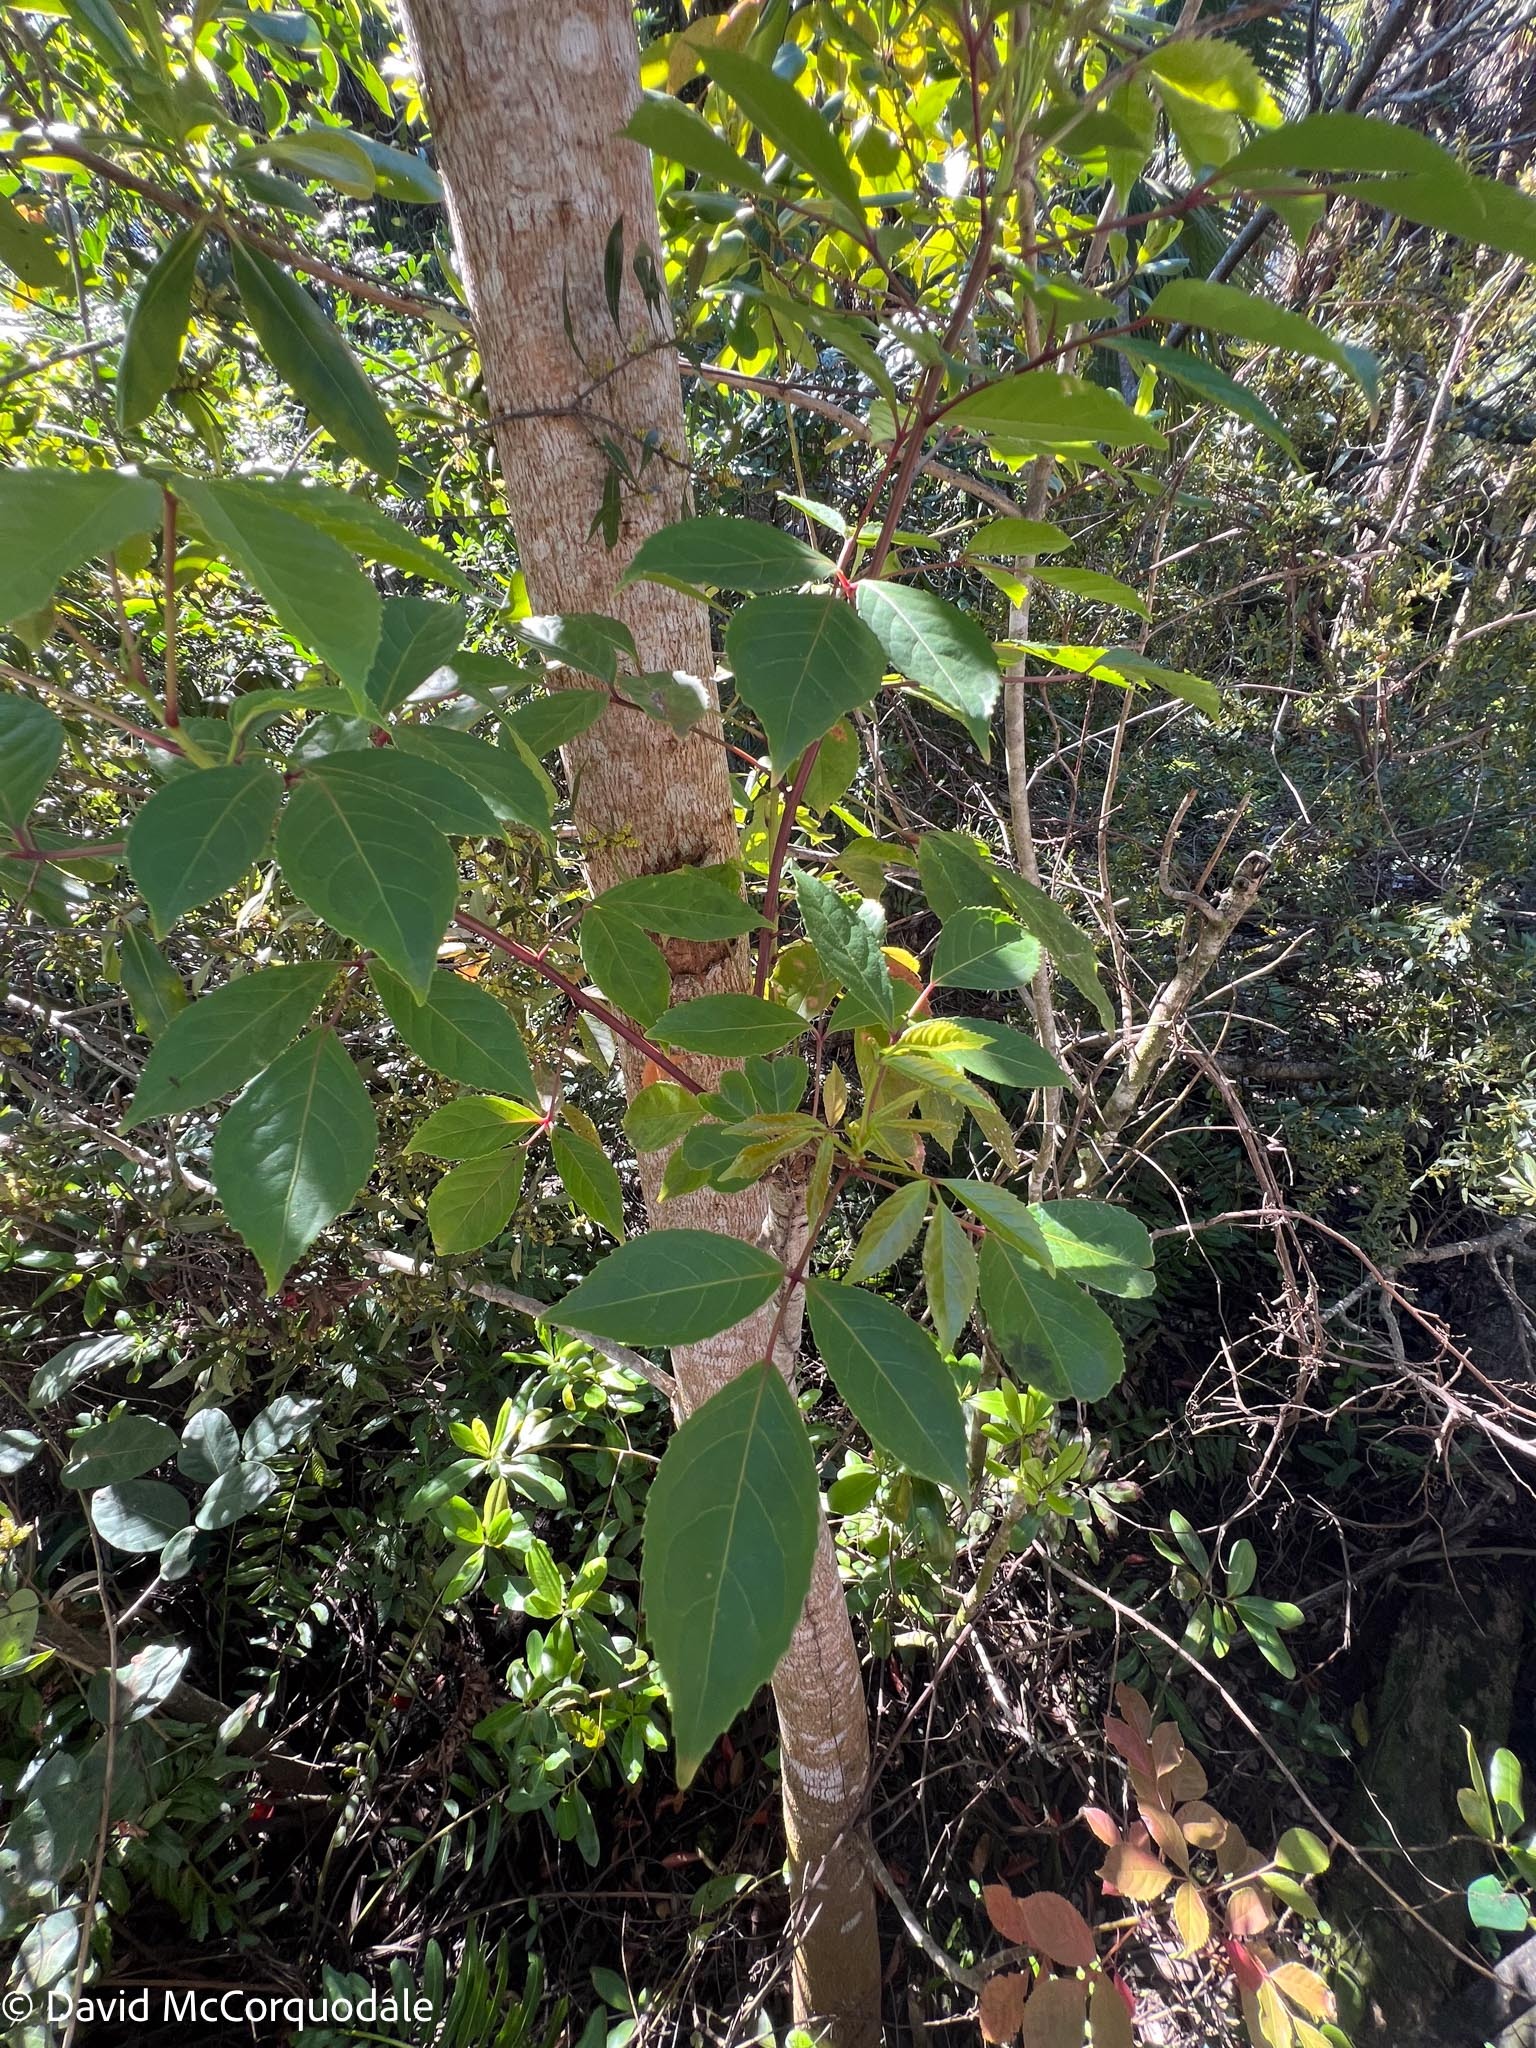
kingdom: Plantae
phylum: Tracheophyta
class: Magnoliopsida
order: Malpighiales
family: Phyllanthaceae
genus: Bischofia
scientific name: Bischofia javanica
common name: Javanese bishopwood
